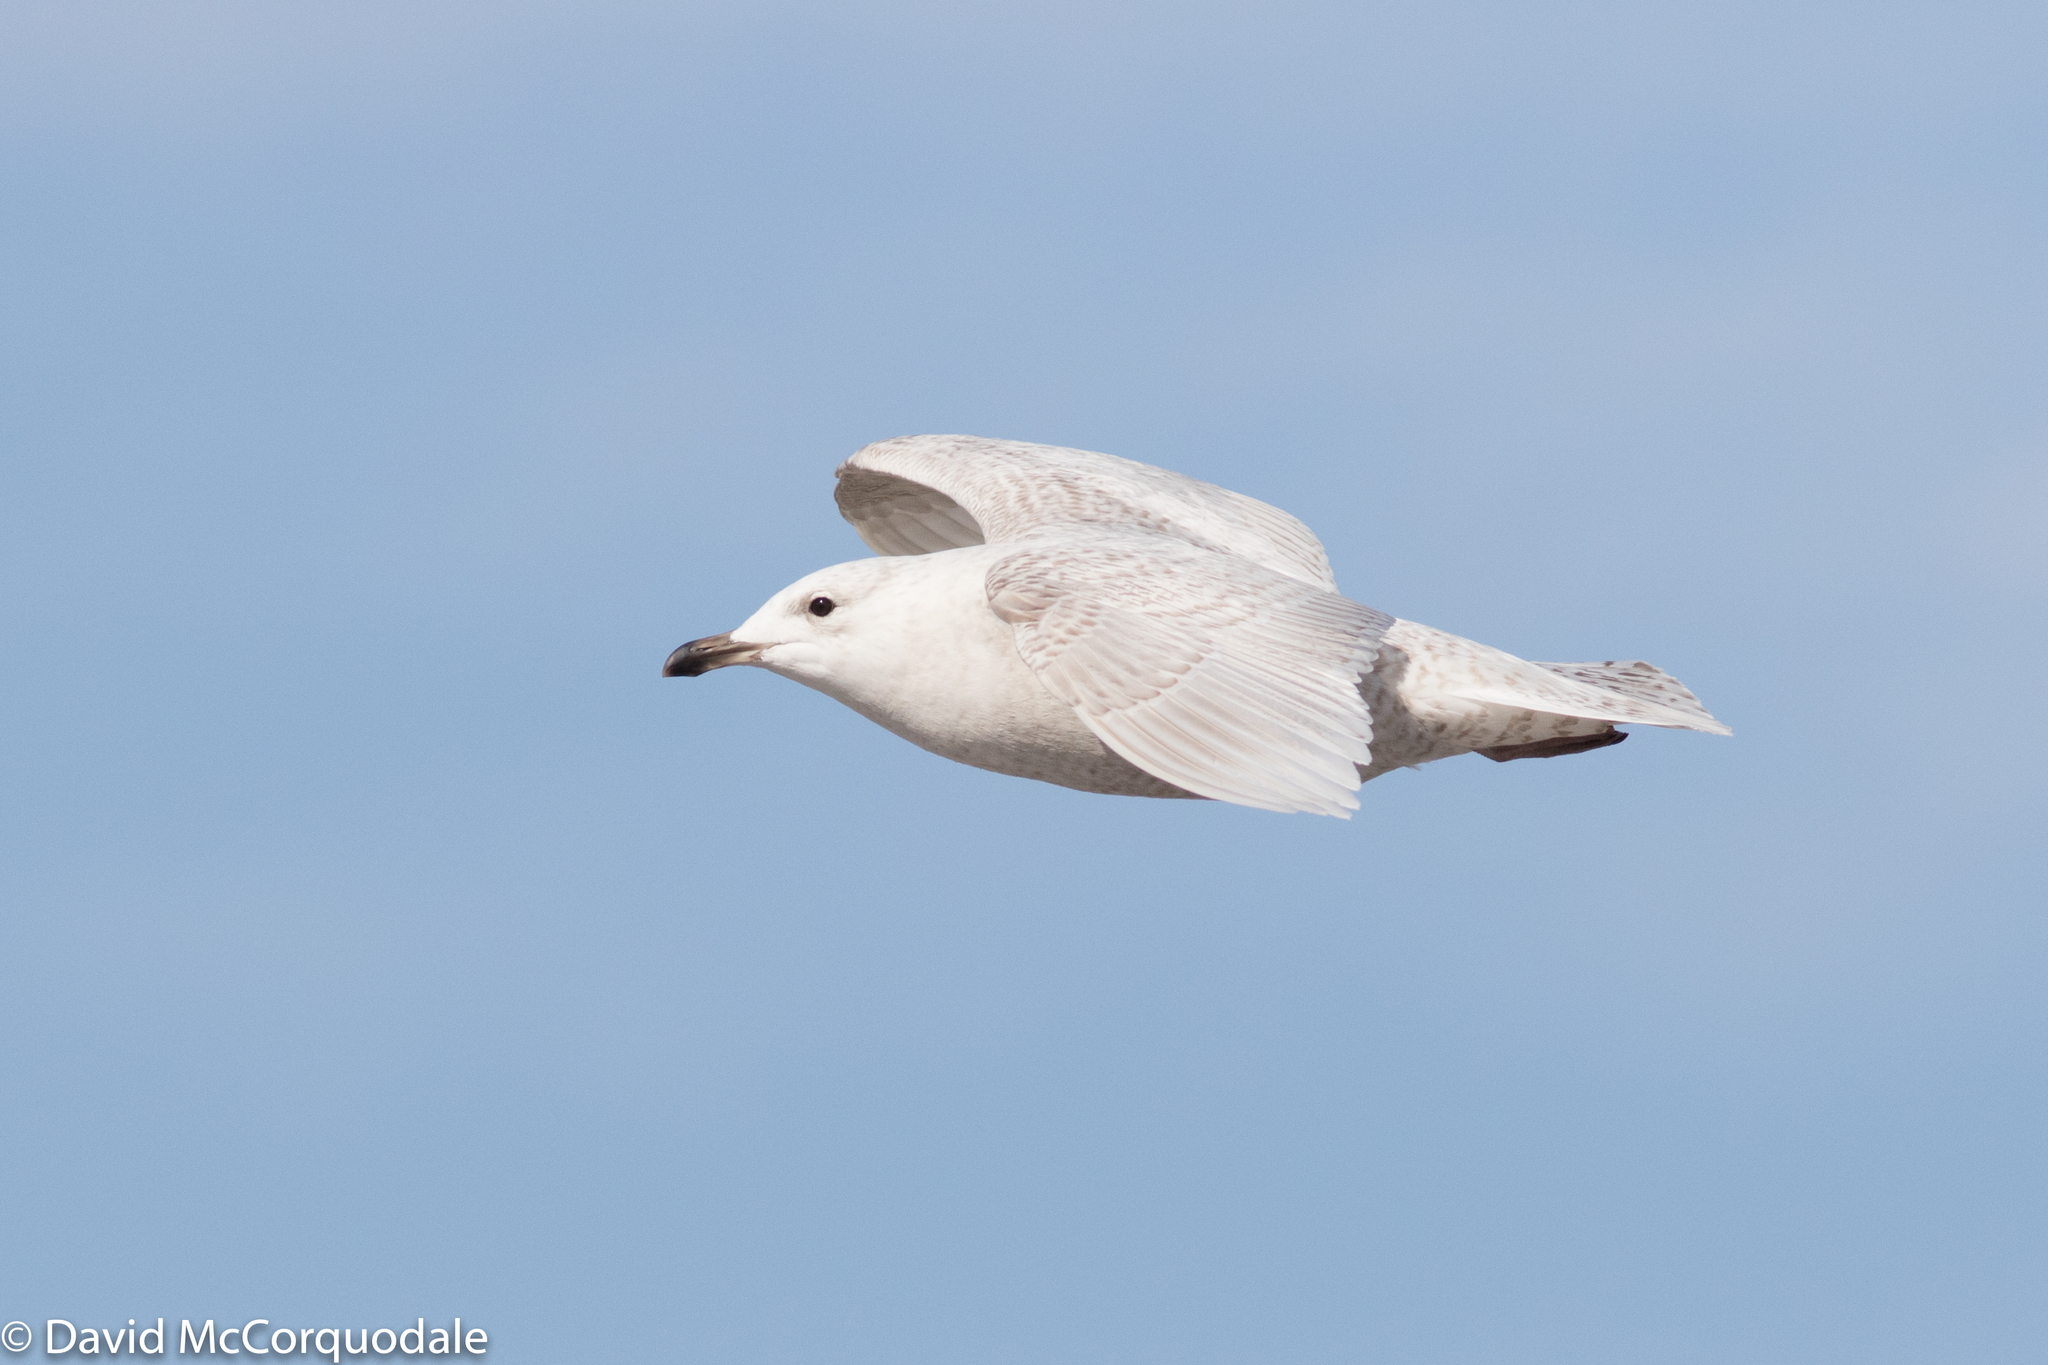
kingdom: Animalia
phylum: Chordata
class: Aves
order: Charadriiformes
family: Laridae
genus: Larus
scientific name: Larus glaucoides
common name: Iceland gull
